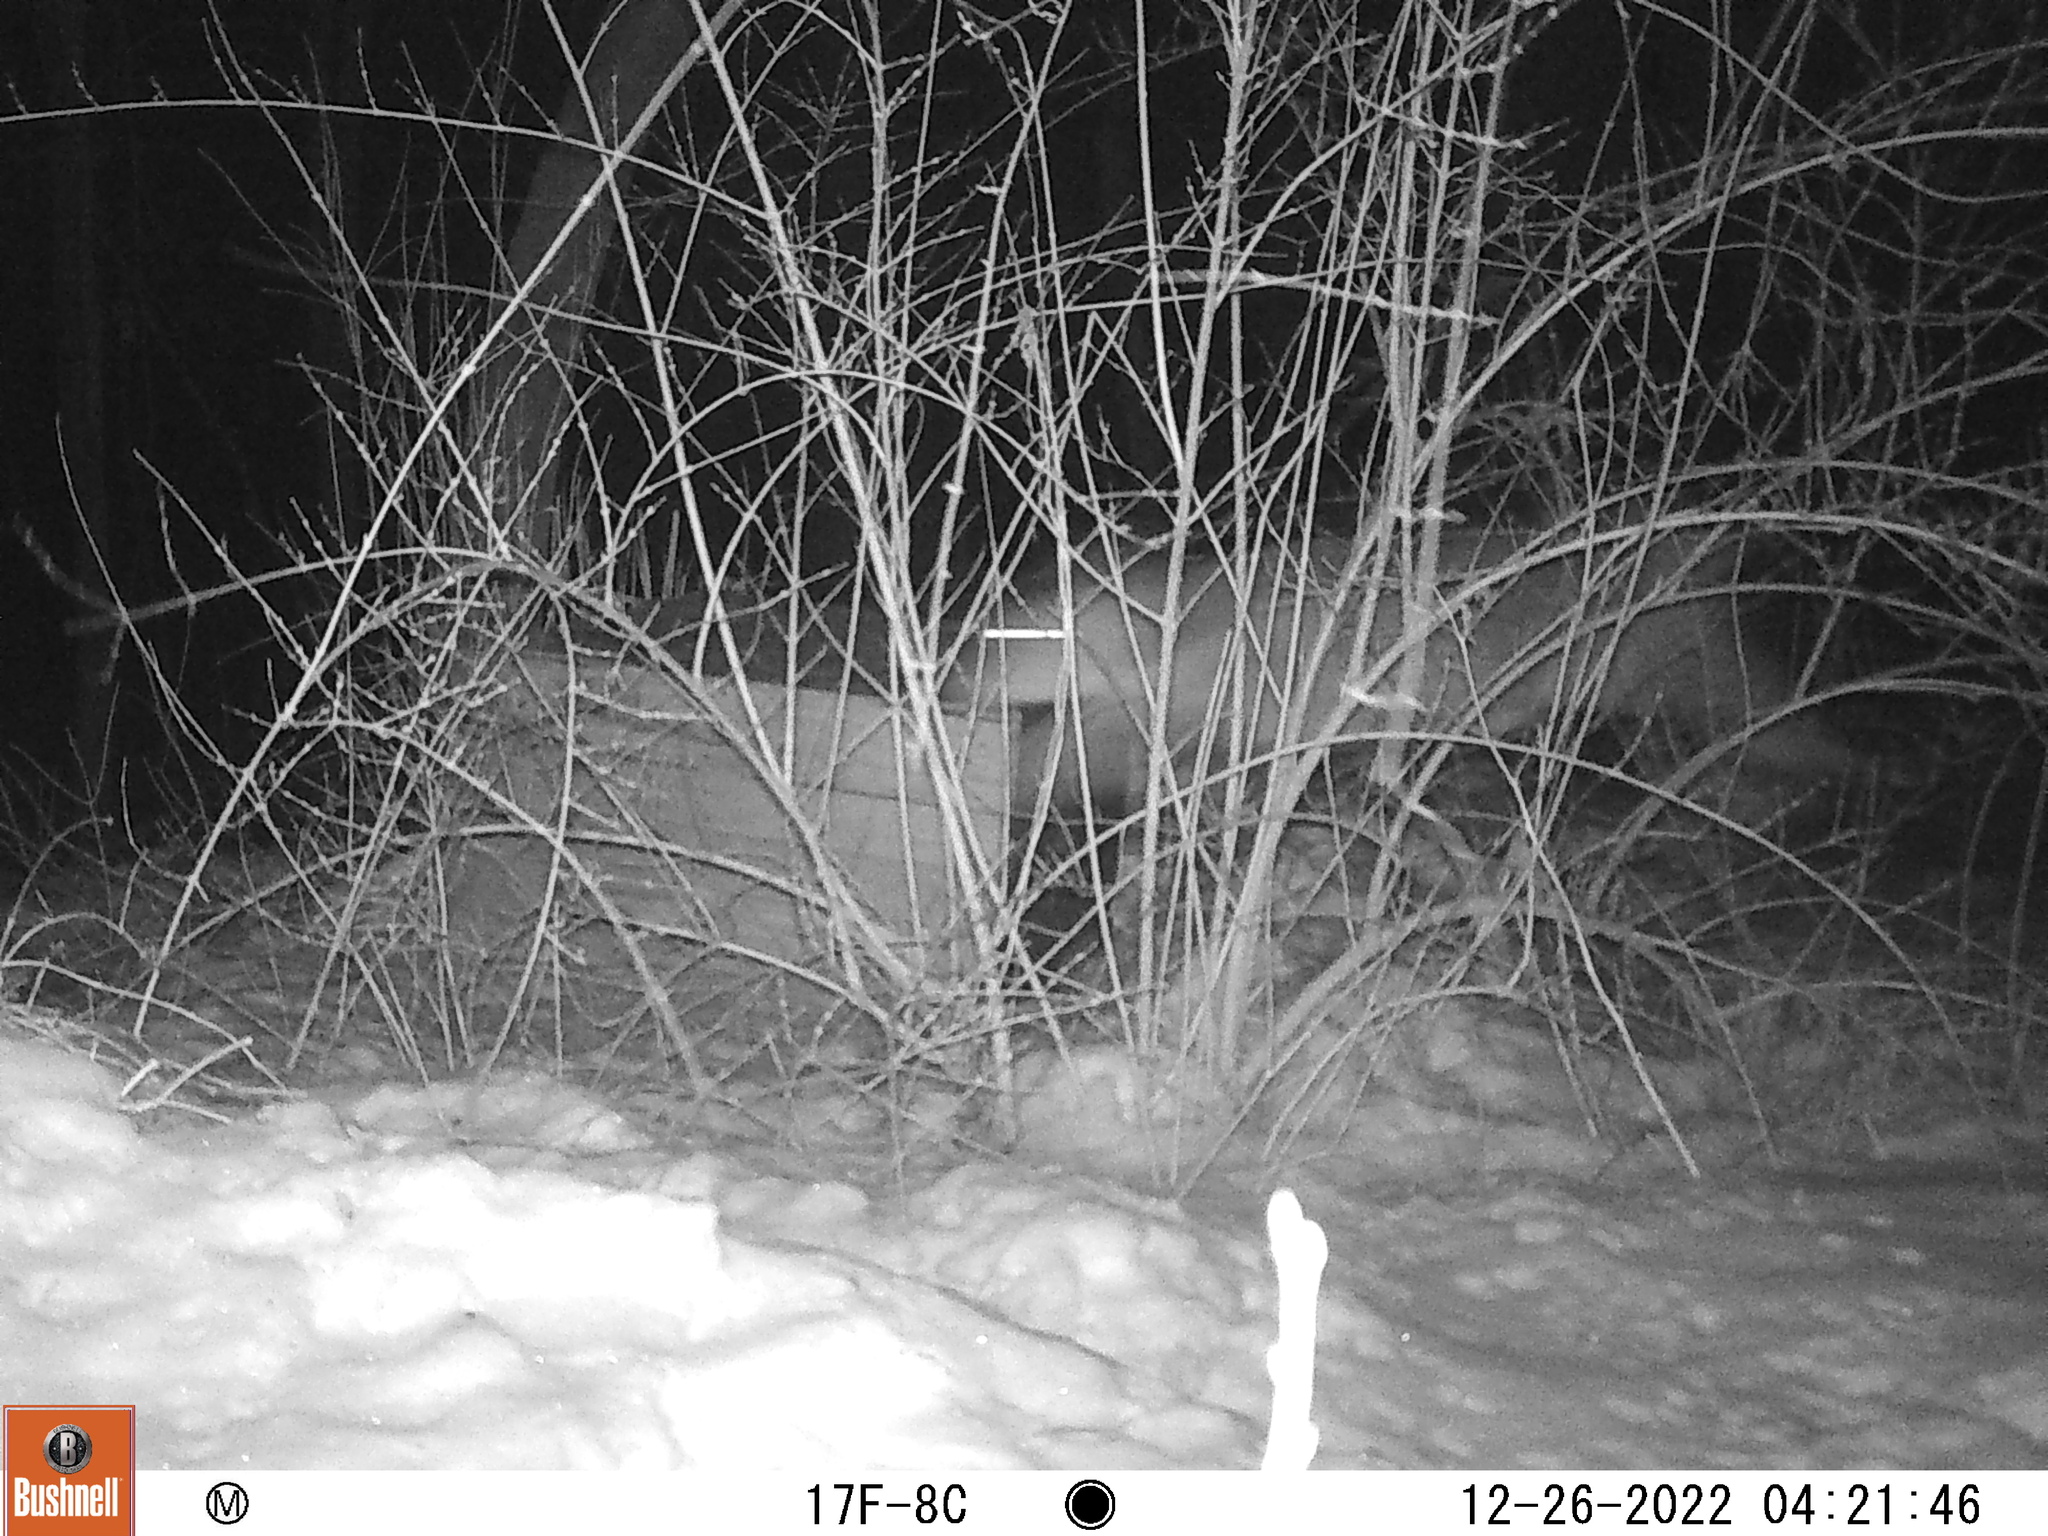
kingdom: Animalia
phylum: Chordata
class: Mammalia
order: Artiodactyla
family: Cervidae
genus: Odocoileus
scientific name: Odocoileus virginianus
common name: White-tailed deer
